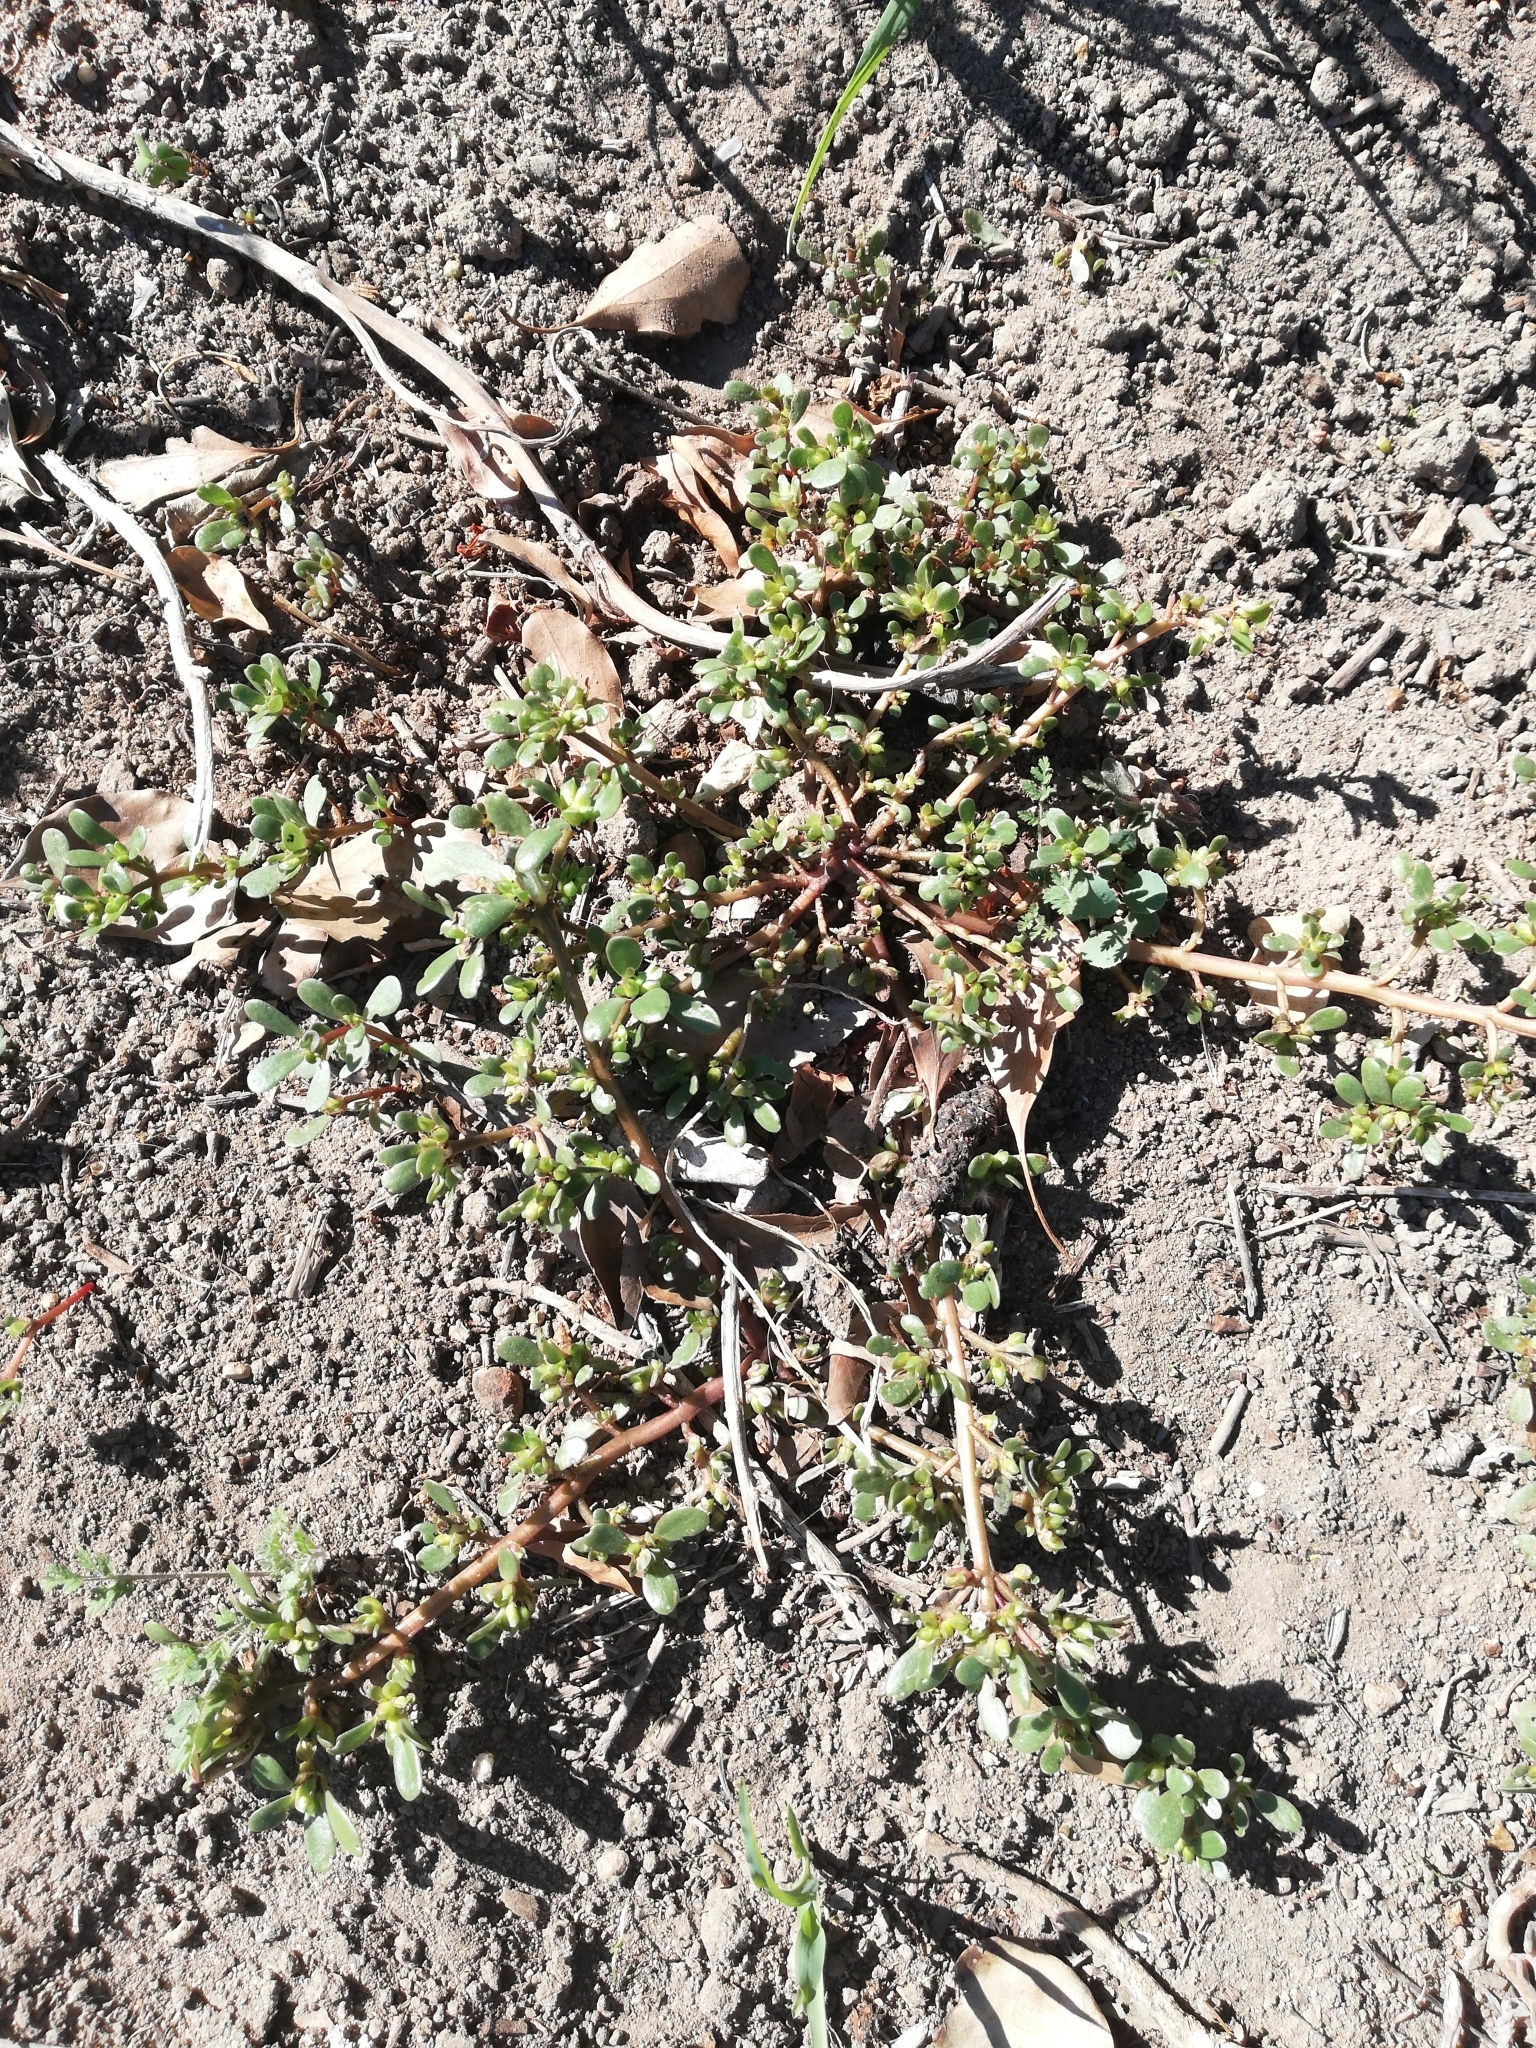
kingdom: Plantae
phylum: Tracheophyta
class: Magnoliopsida
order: Caryophyllales
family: Portulacaceae
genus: Portulaca
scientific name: Portulaca oleracea
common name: Common purslane
